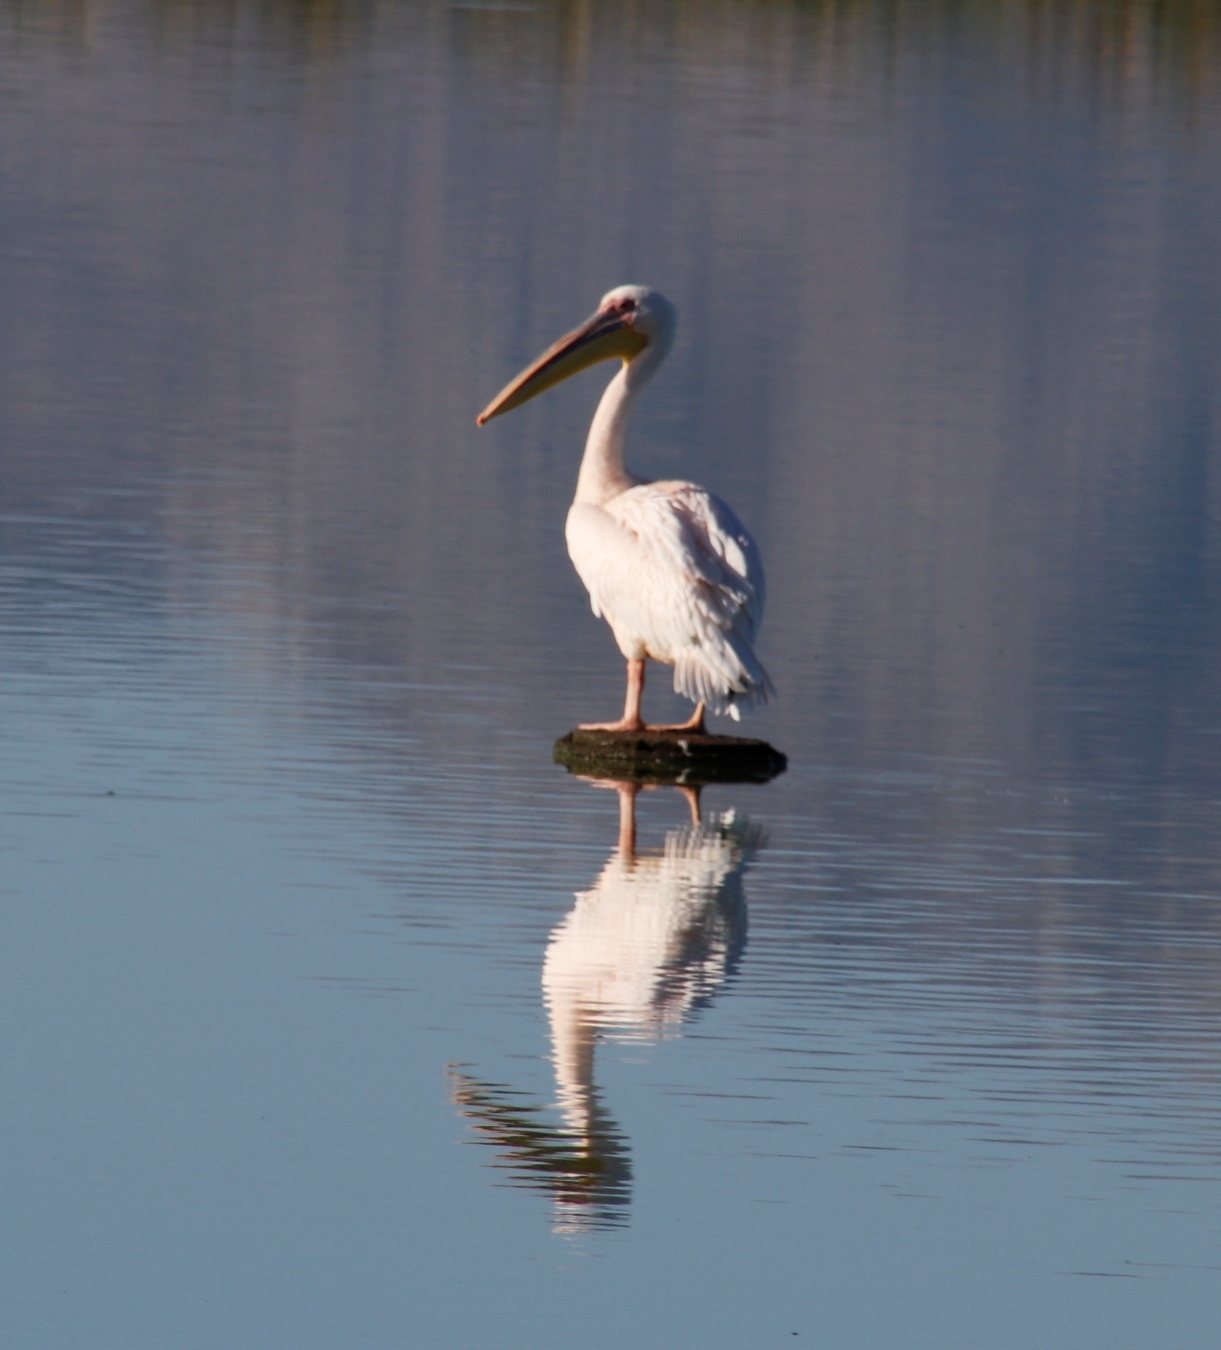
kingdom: Animalia
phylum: Chordata
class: Aves
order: Pelecaniformes
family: Pelecanidae
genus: Pelecanus
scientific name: Pelecanus onocrotalus
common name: Great white pelican
